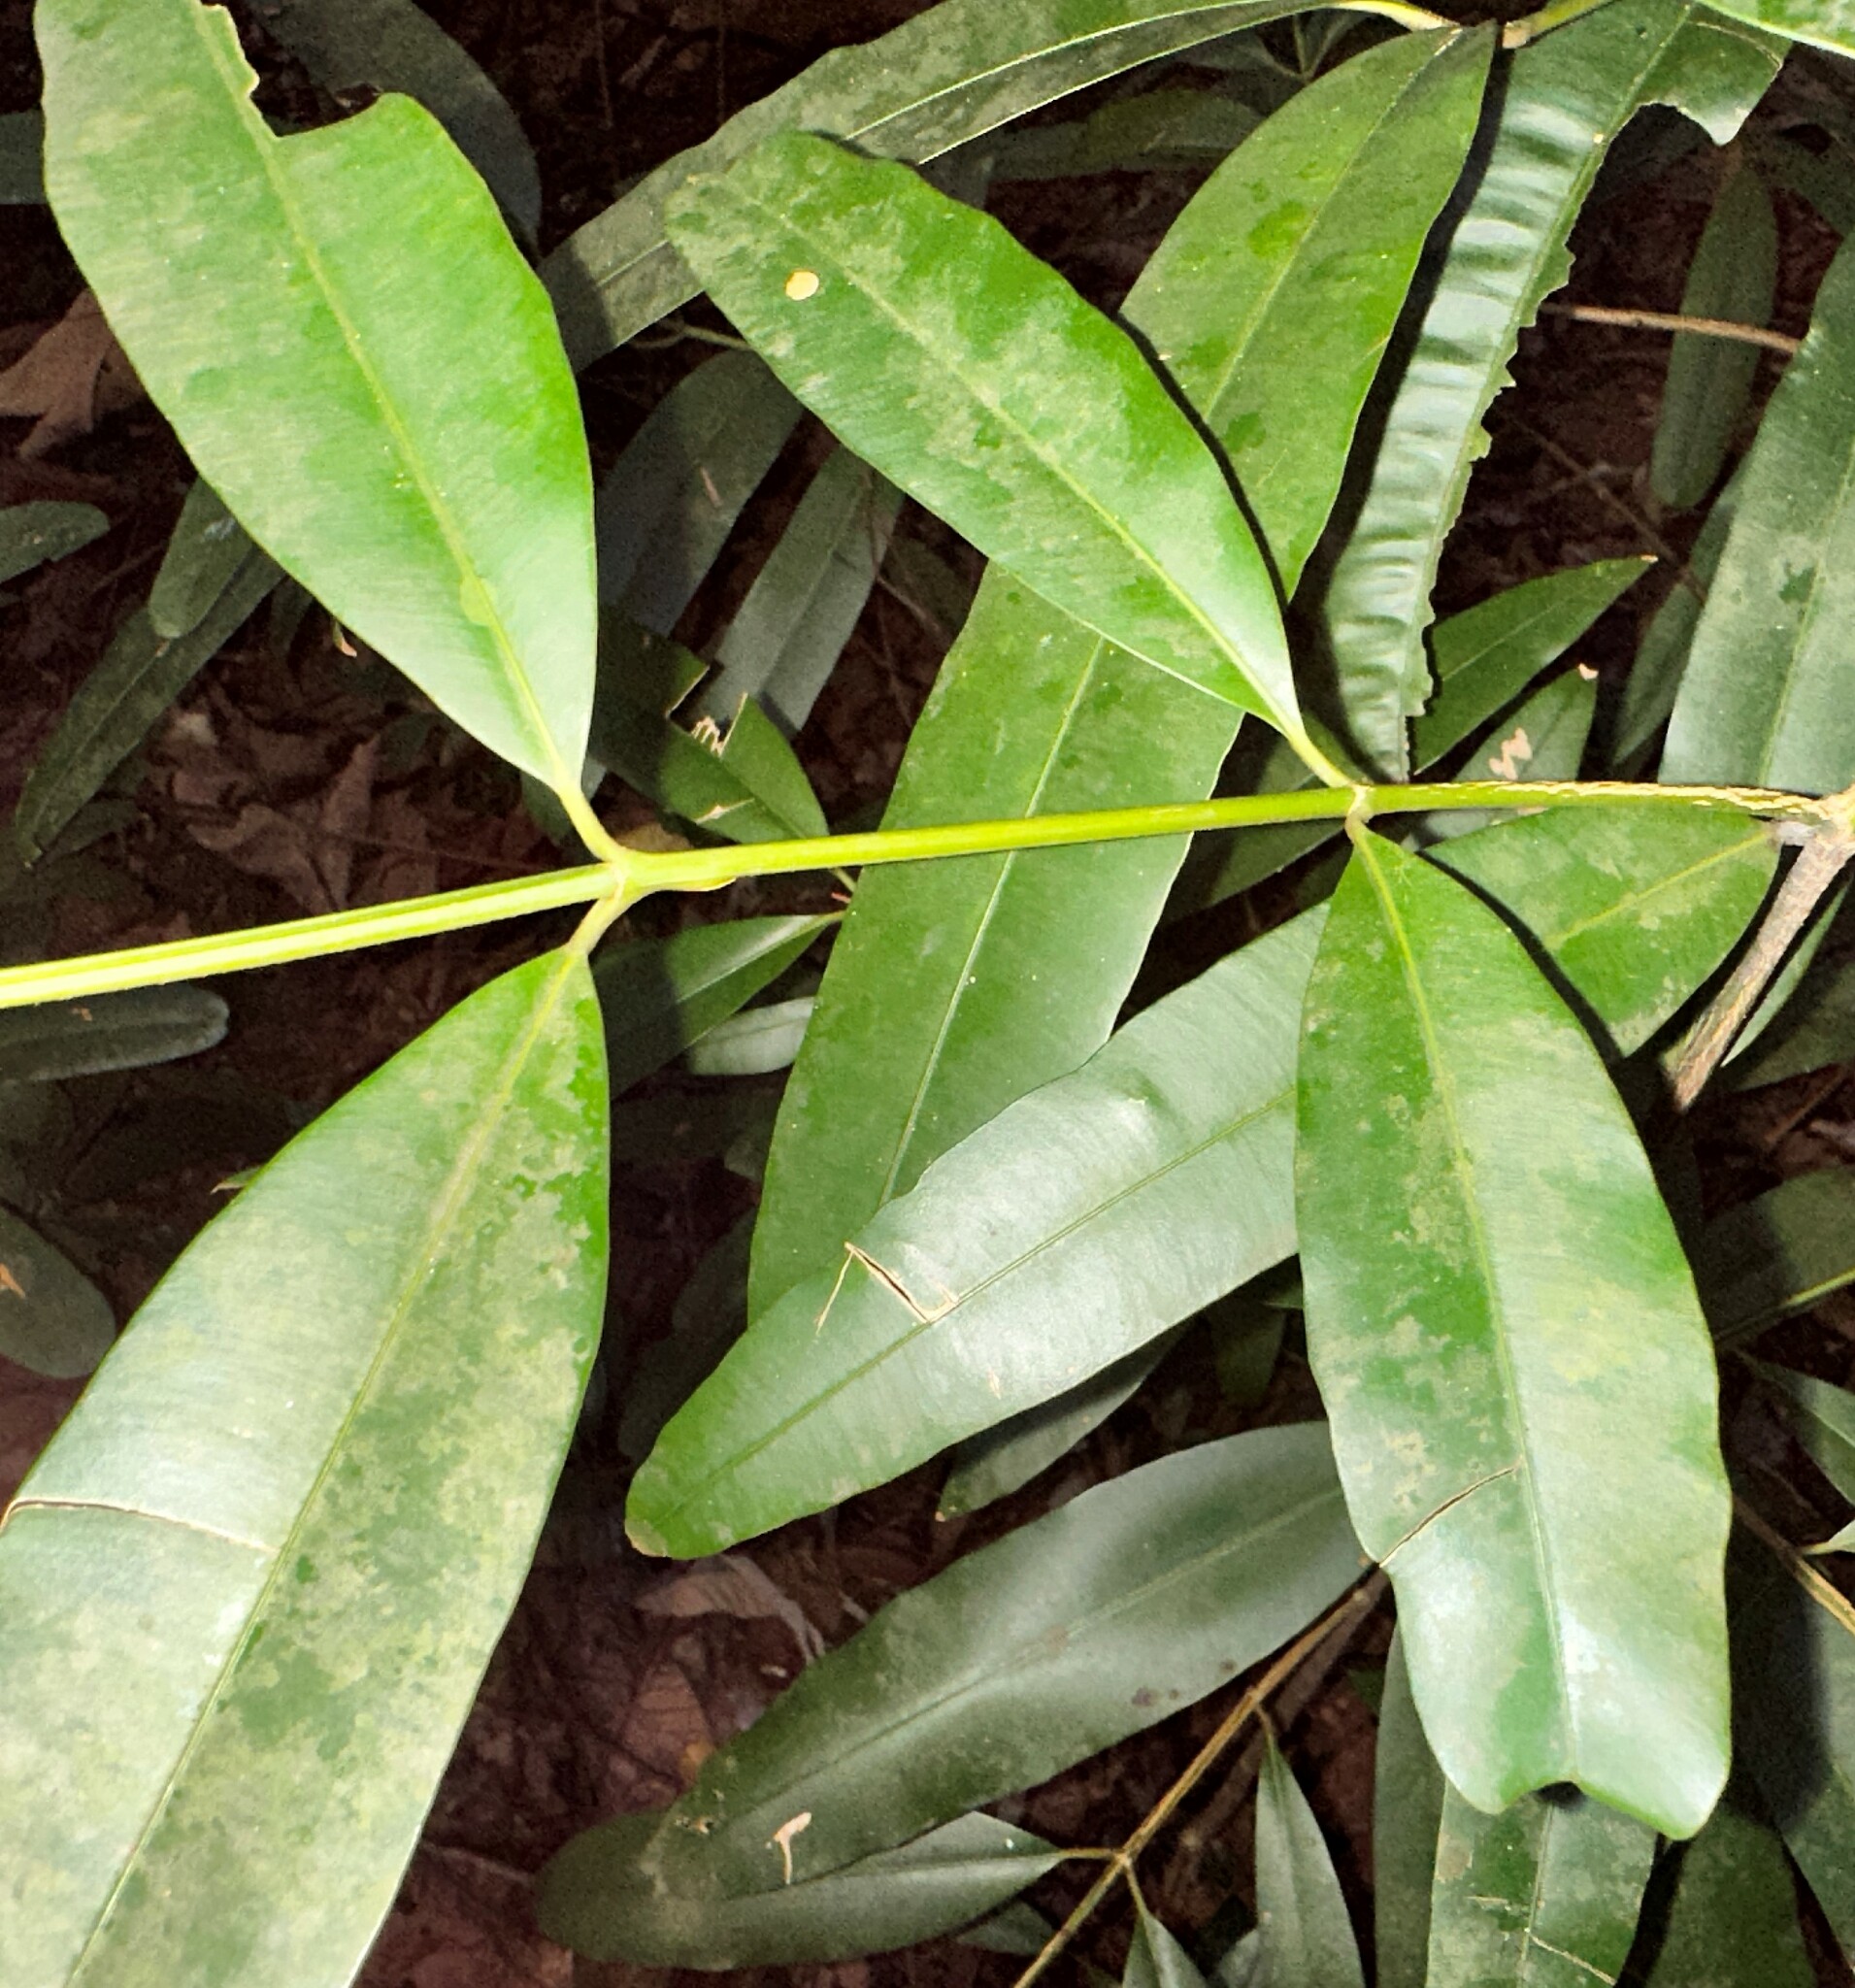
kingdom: Plantae
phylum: Tracheophyta
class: Magnoliopsida
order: Malpighiales
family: Calophyllaceae
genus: Calophyllum
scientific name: Calophyllum rufigemmatum
